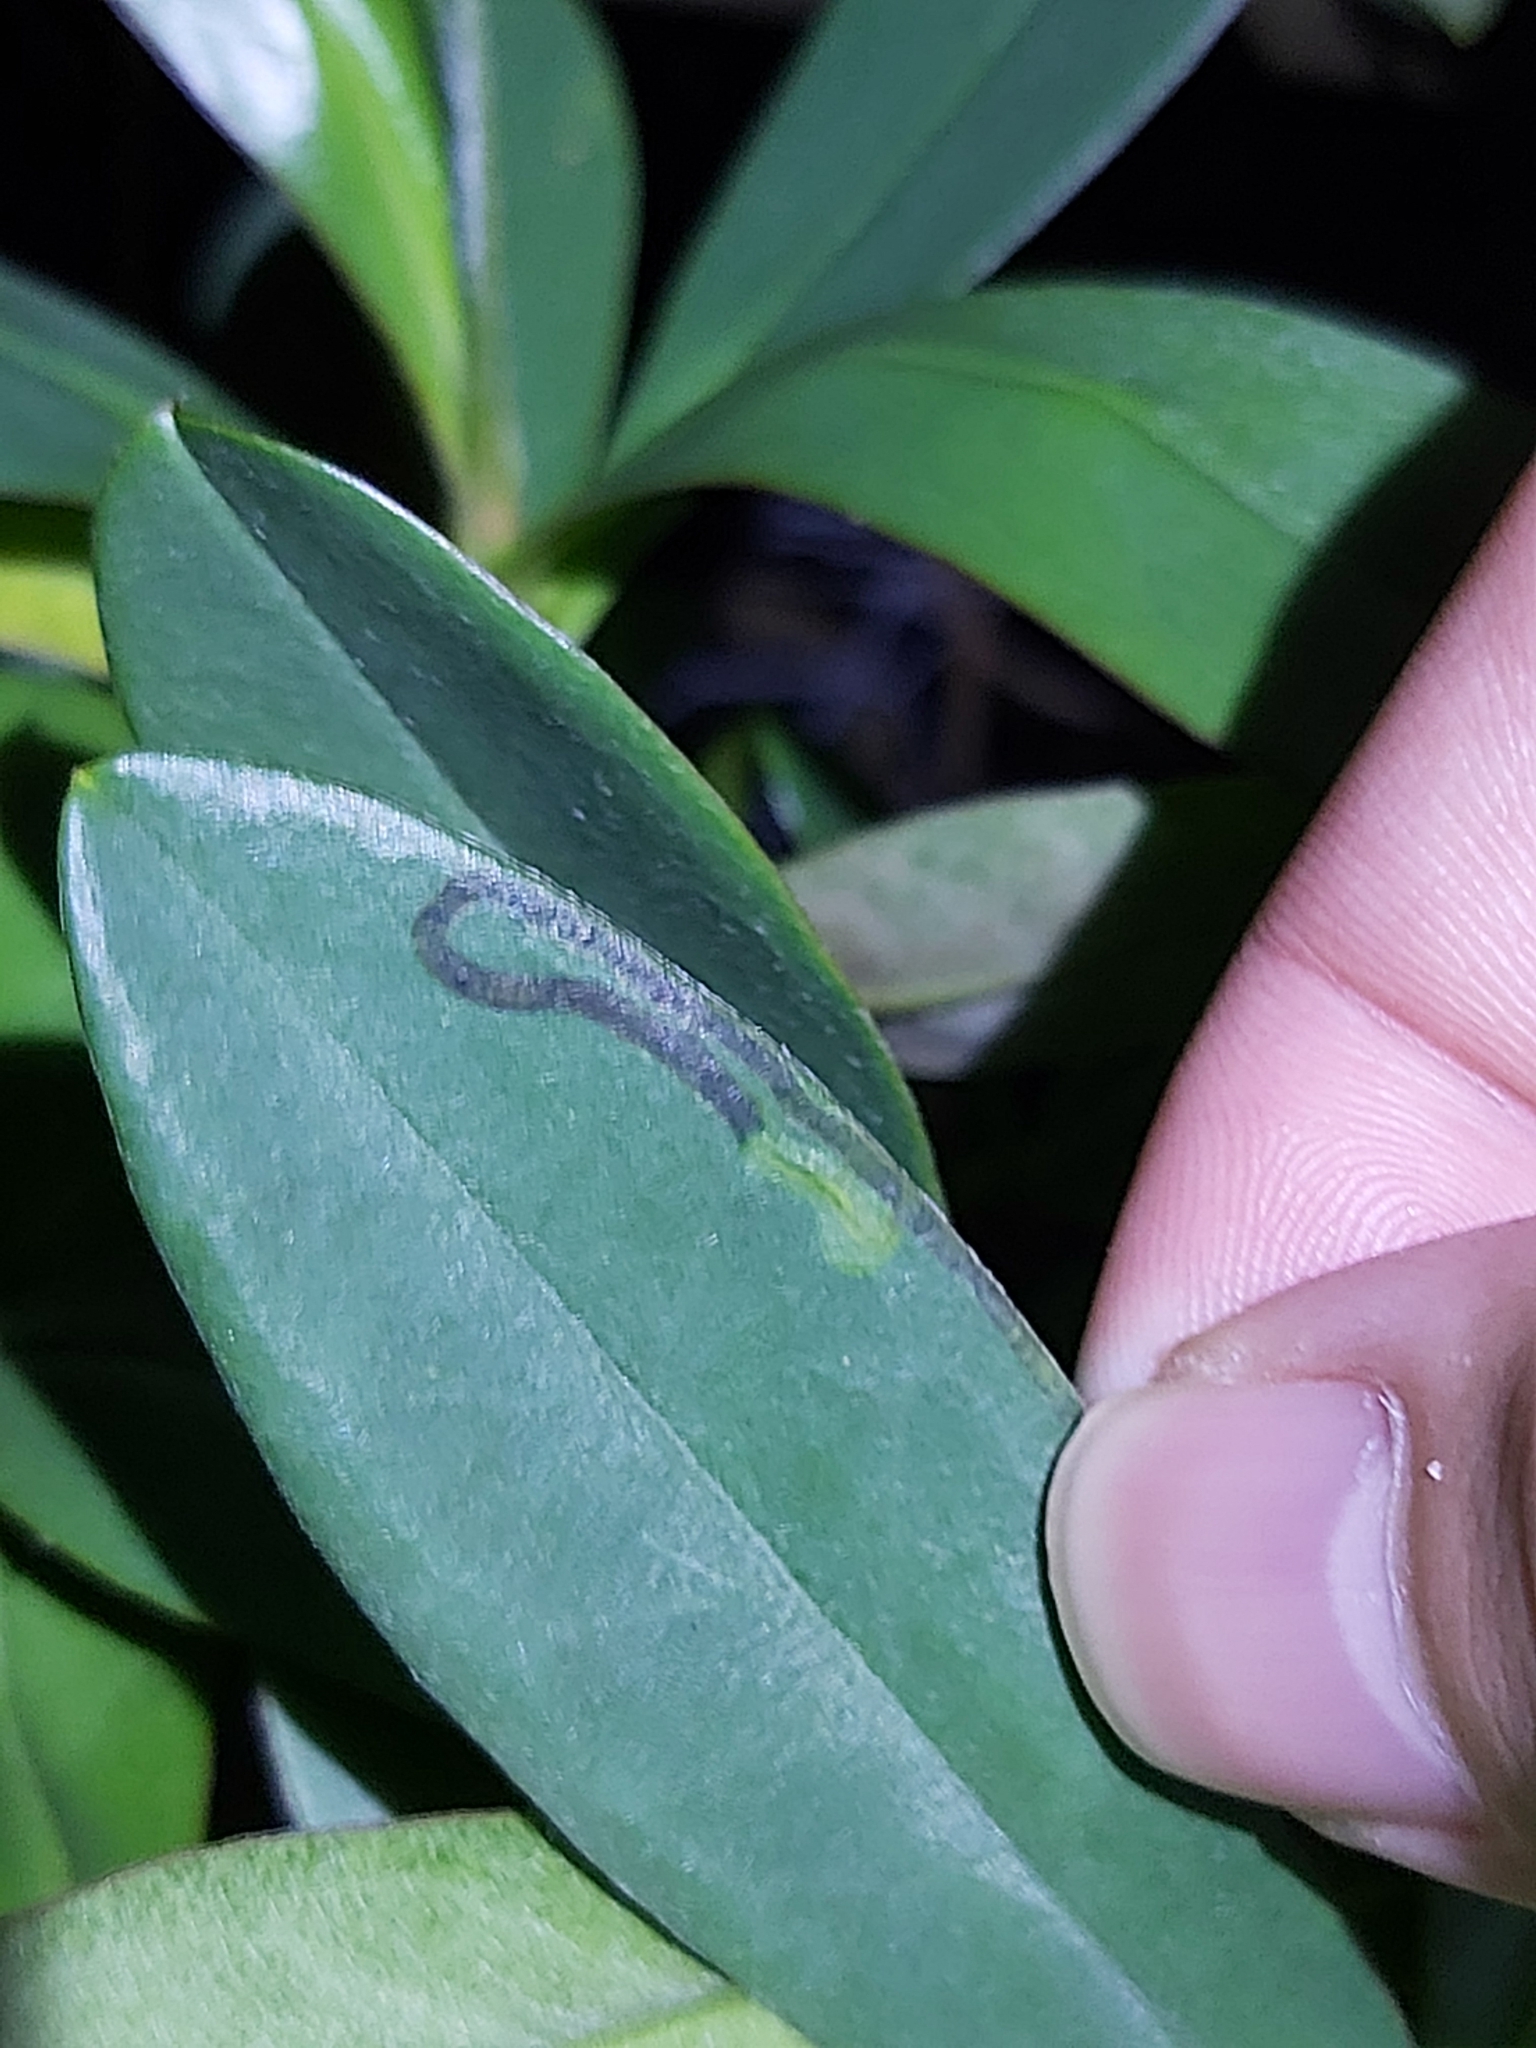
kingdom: Plantae
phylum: Tracheophyta
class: Magnoliopsida
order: Dilleniales
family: Dilleniaceae
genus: Hibbertia
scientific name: Hibbertia scandens
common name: Climbing guinea-flower
